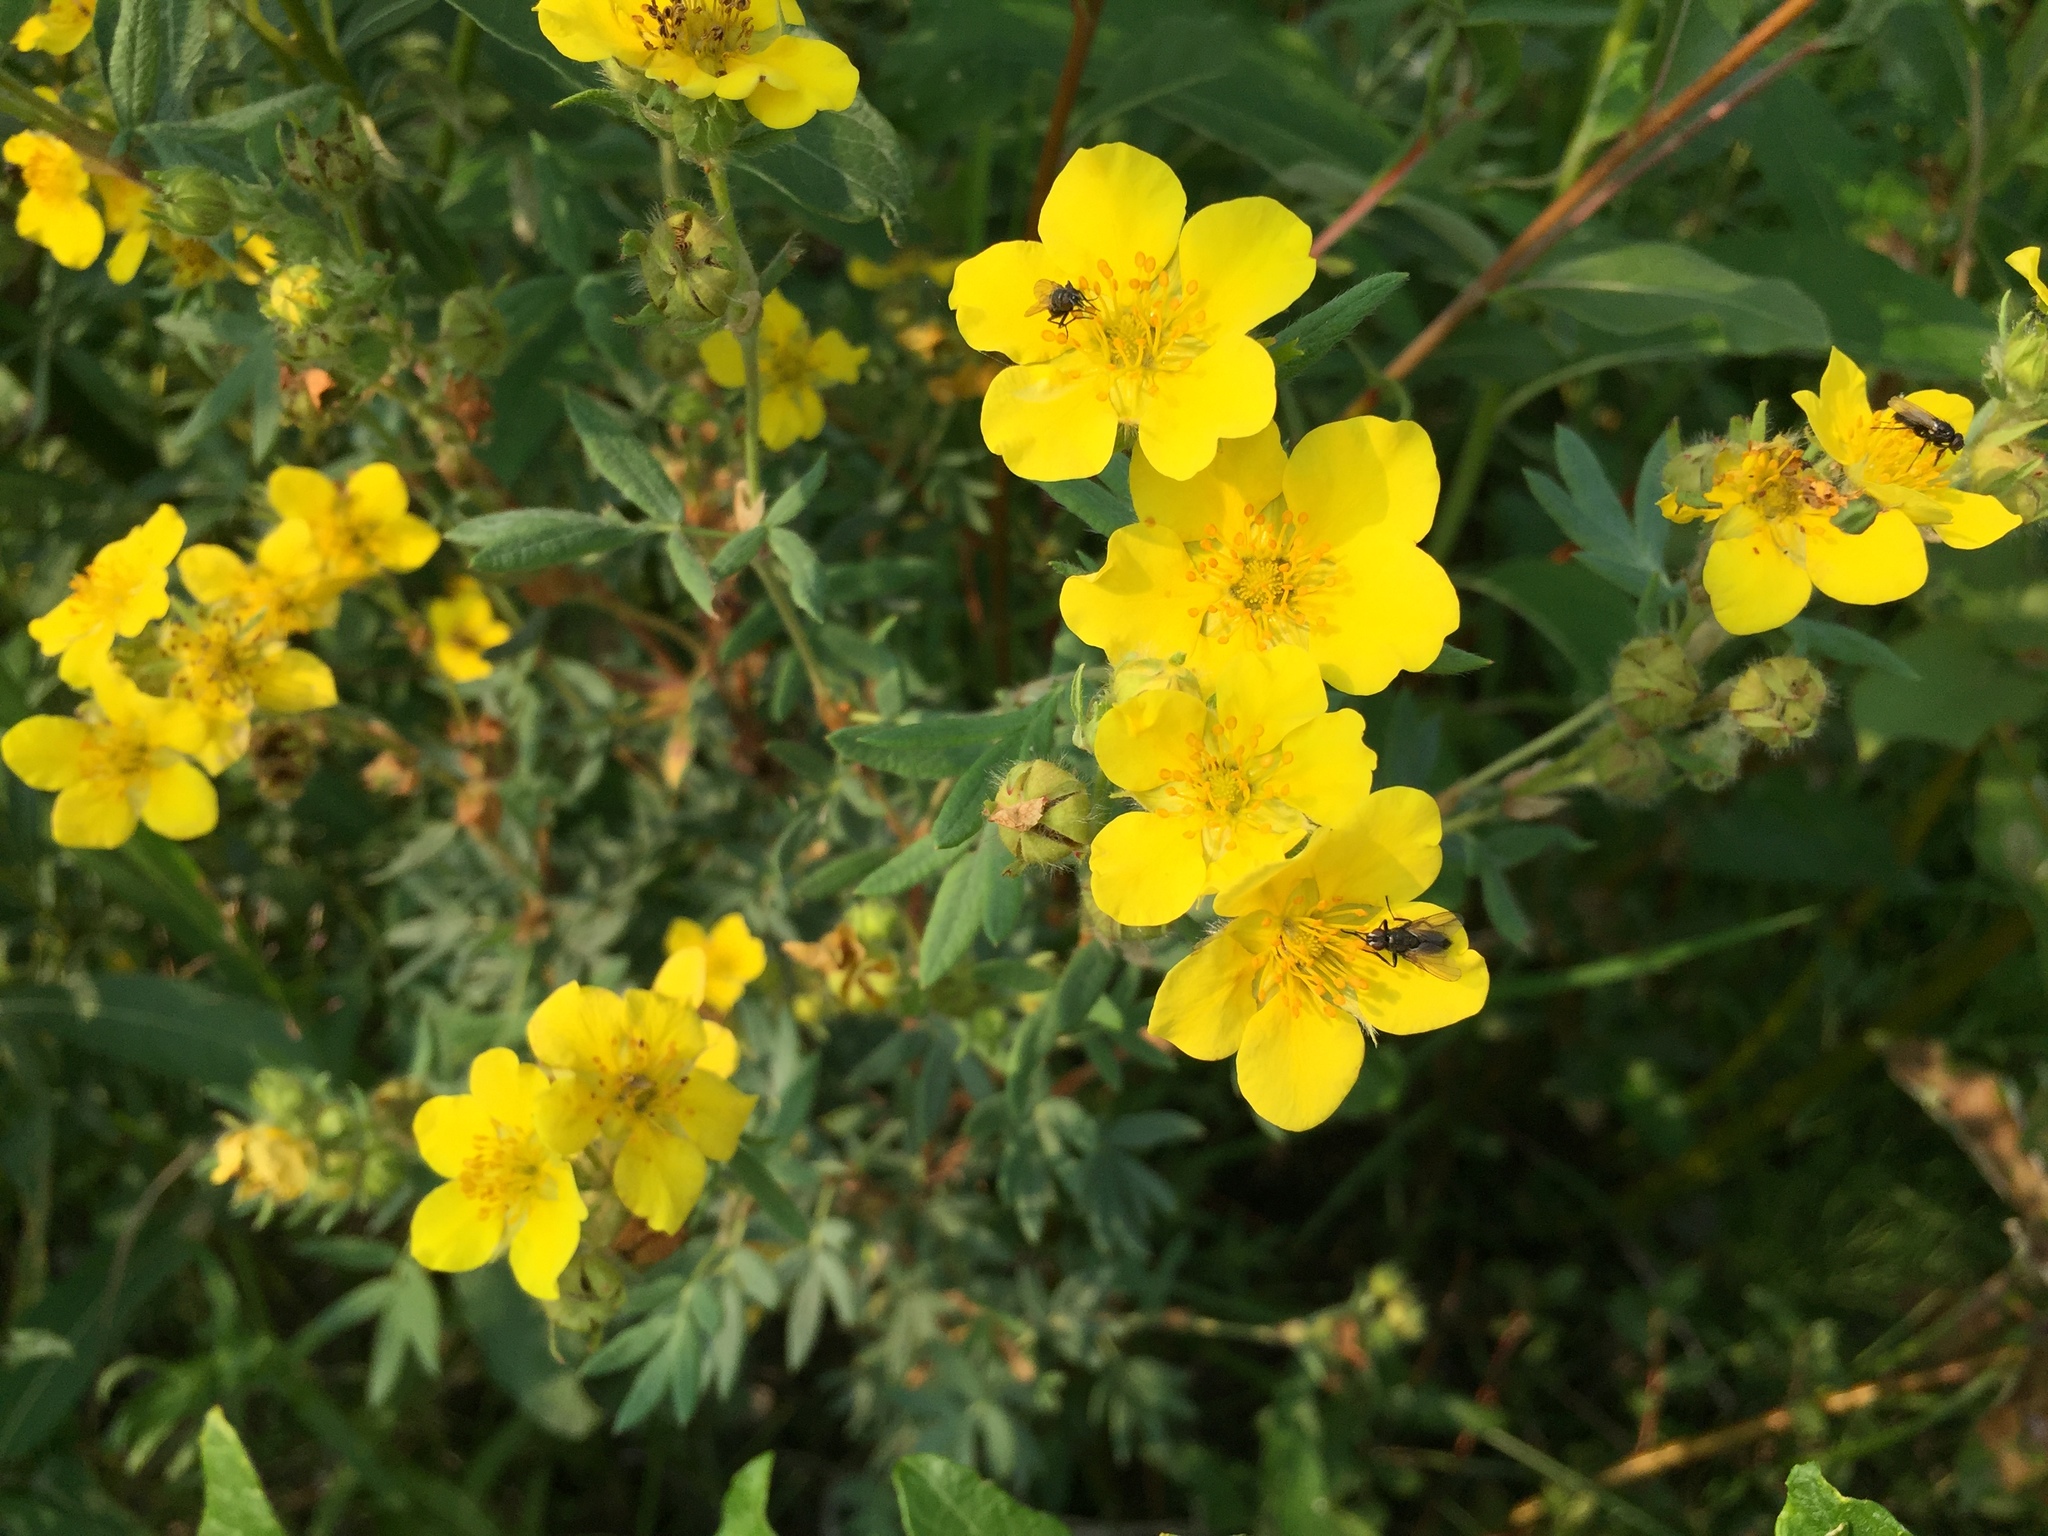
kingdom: Plantae
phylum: Tracheophyta
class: Magnoliopsida
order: Rosales
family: Rosaceae
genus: Dasiphora
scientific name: Dasiphora fruticosa
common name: Shrubby cinquefoil
